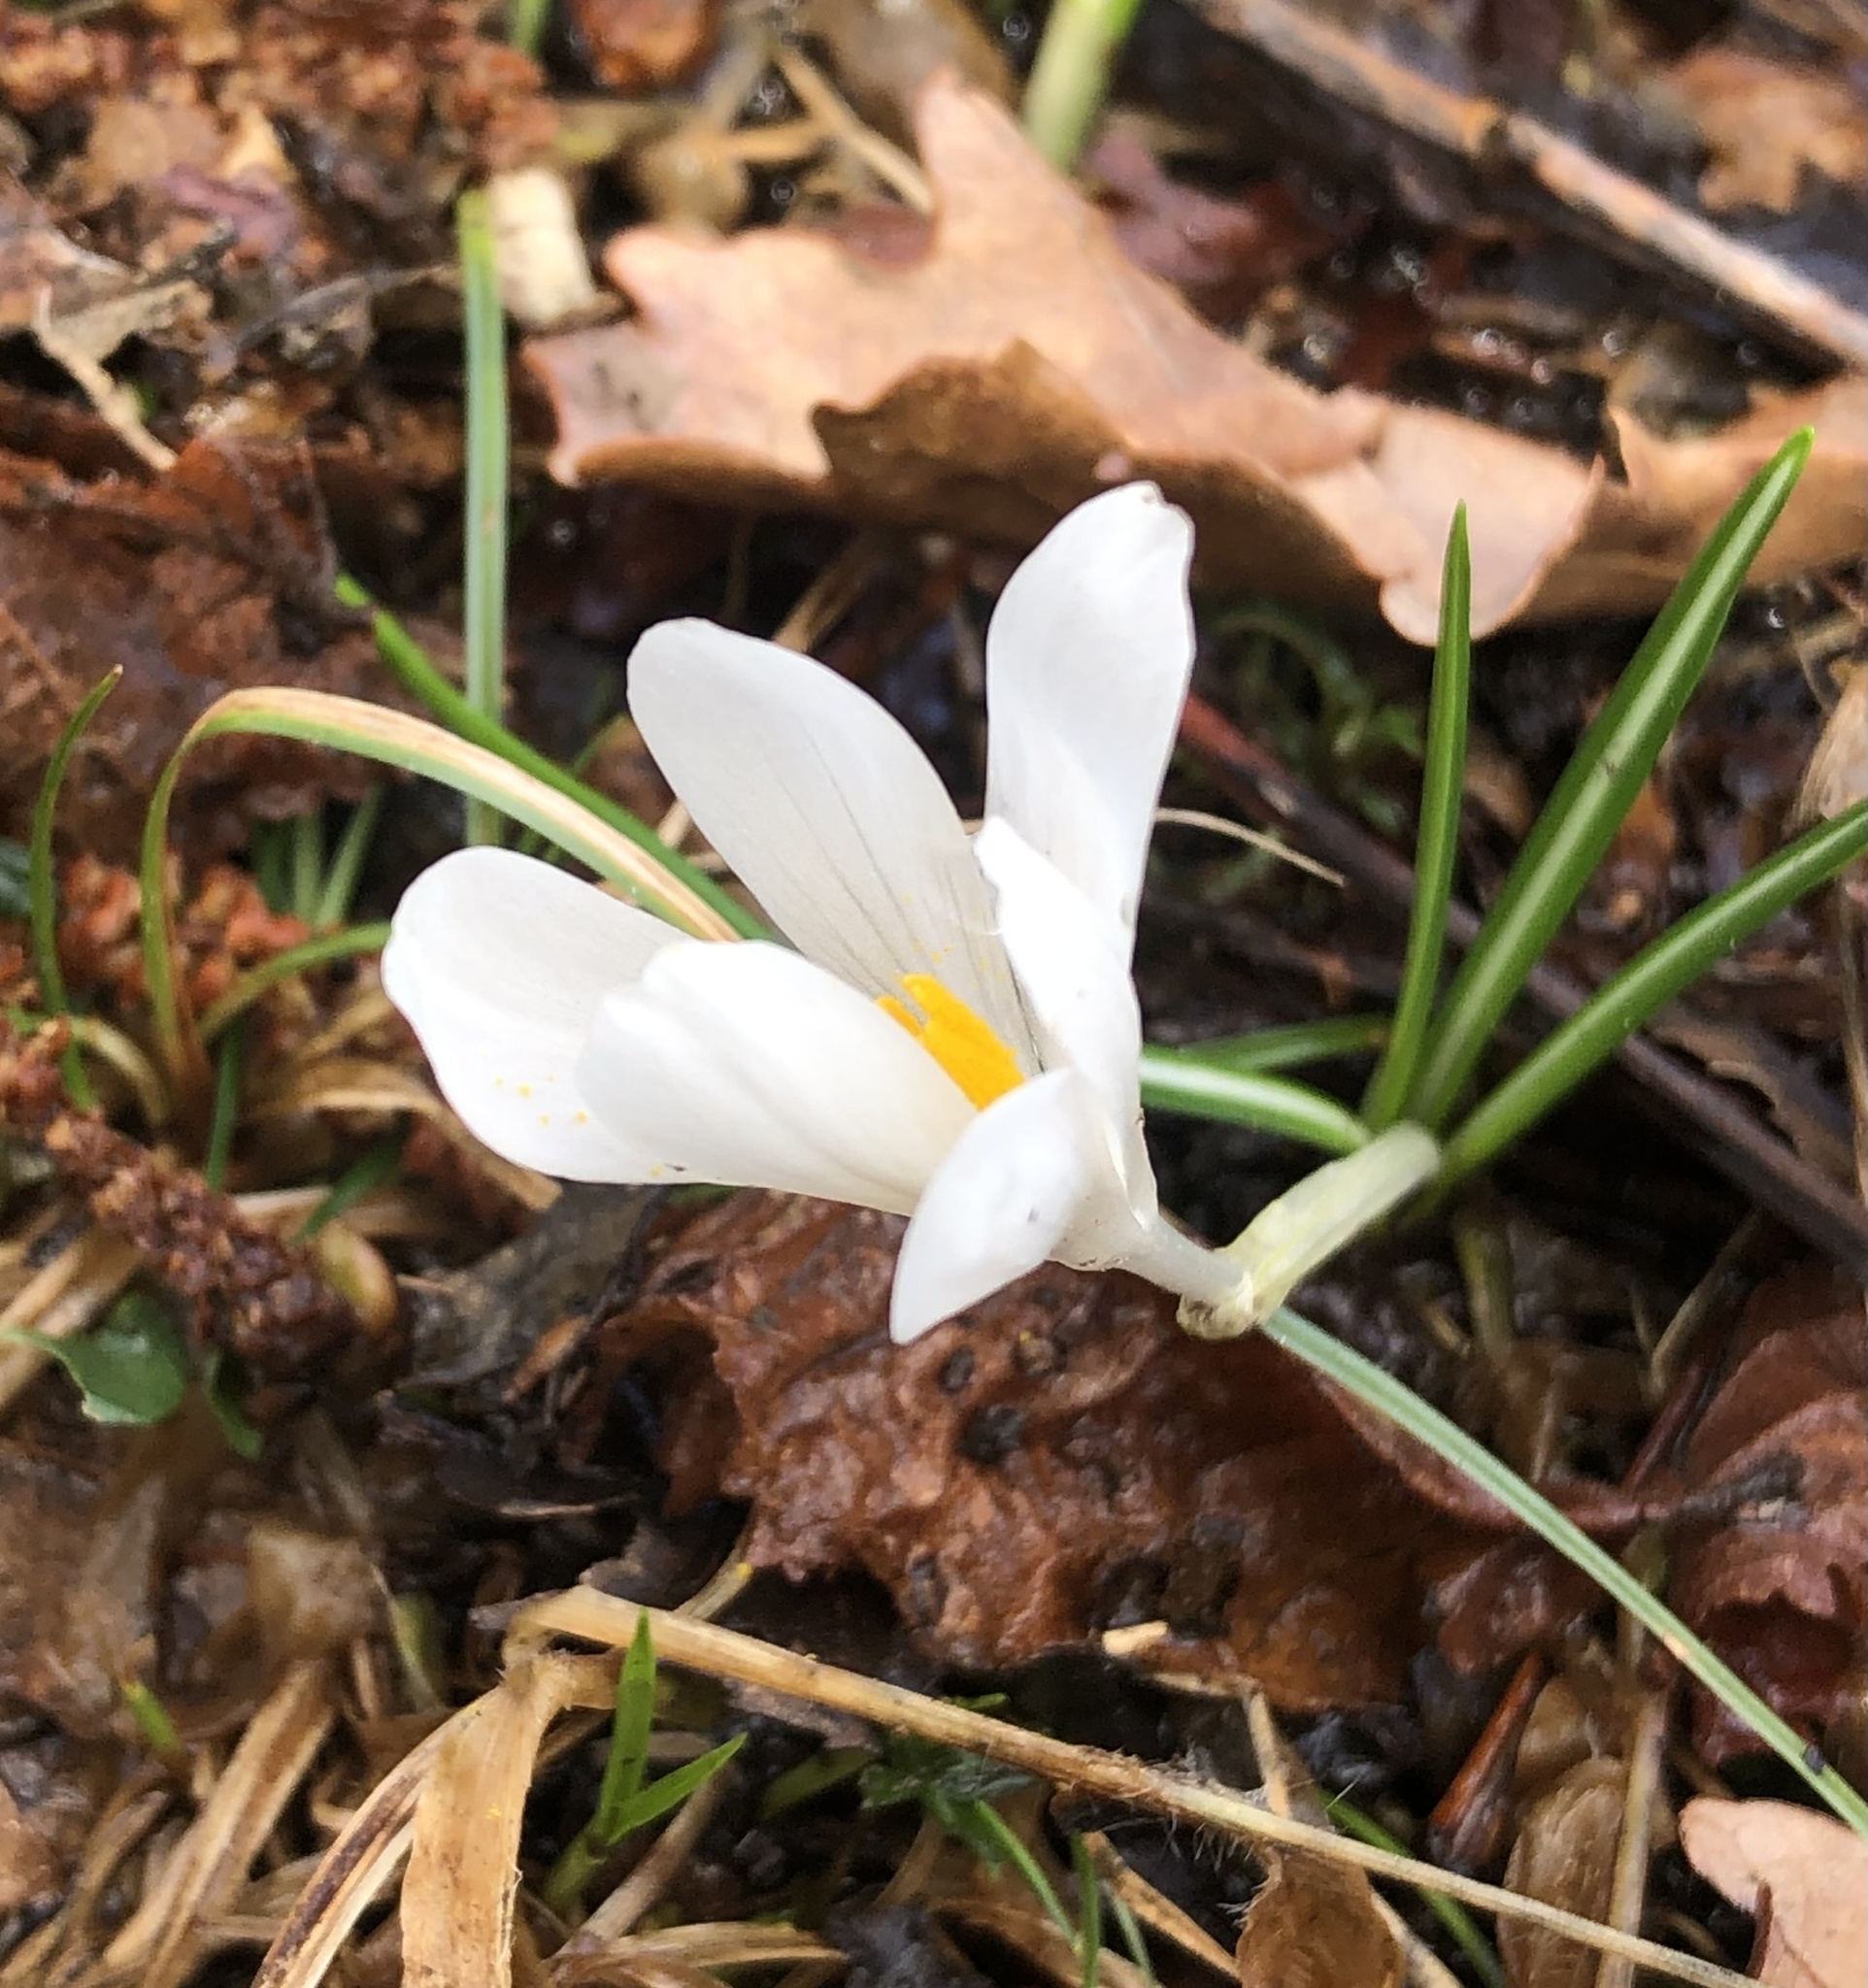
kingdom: Plantae
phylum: Tracheophyta
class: Liliopsida
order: Asparagales
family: Iridaceae
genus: Crocus
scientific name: Crocus vernus
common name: Spring crocus
